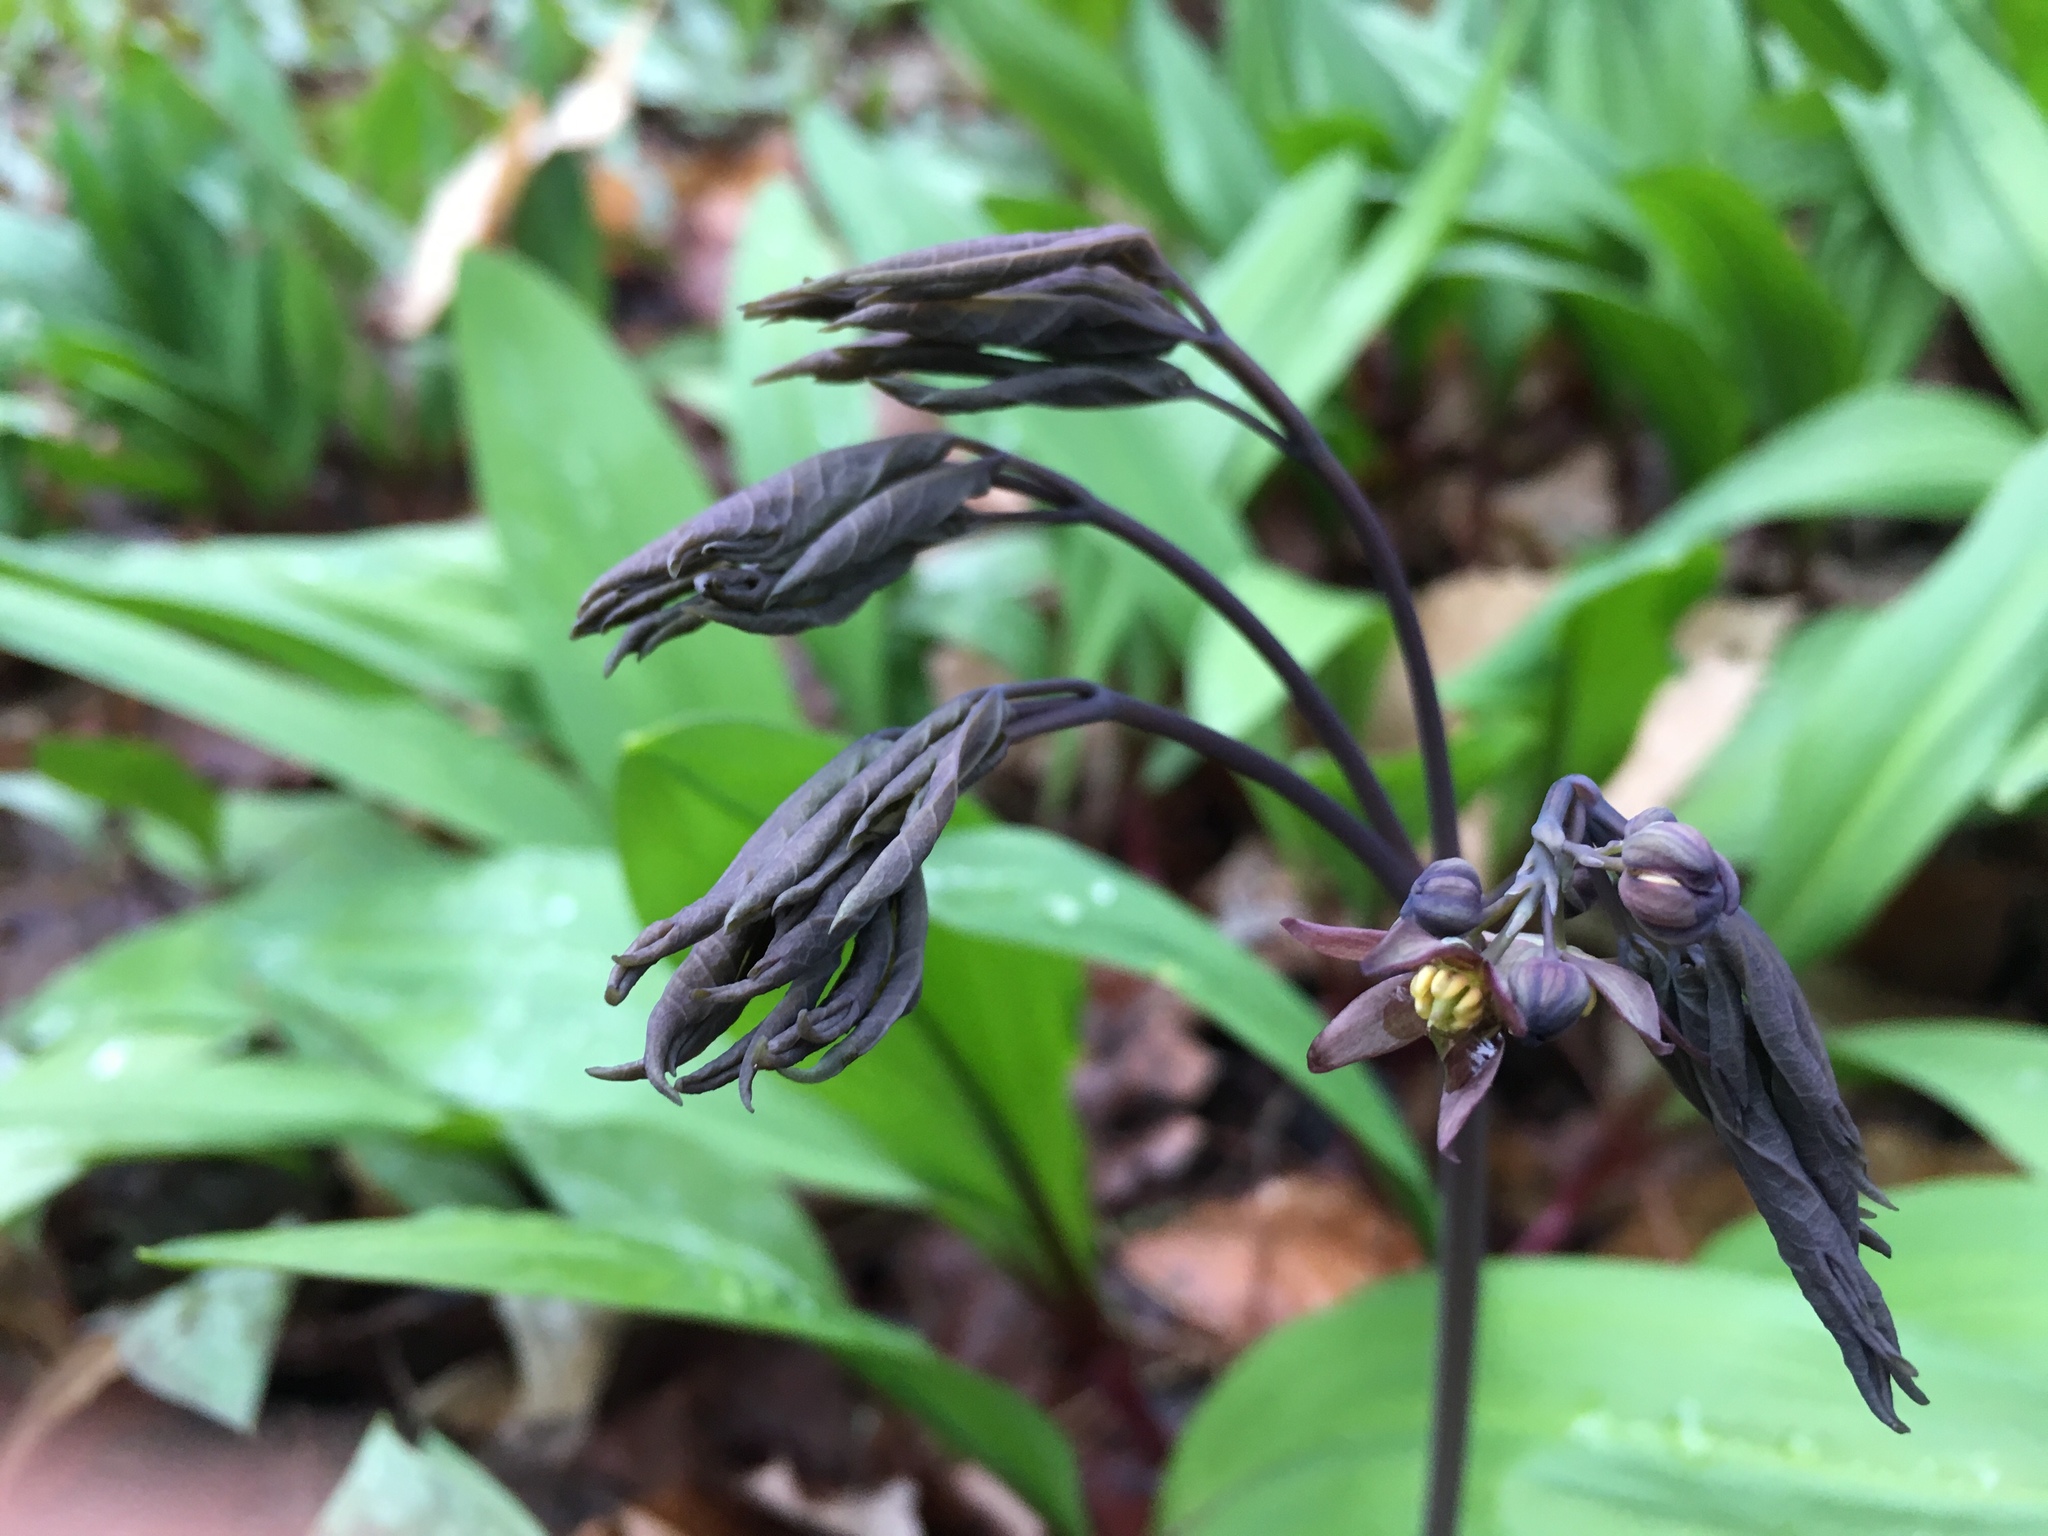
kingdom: Plantae
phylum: Tracheophyta
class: Magnoliopsida
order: Ranunculales
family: Berberidaceae
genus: Caulophyllum
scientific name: Caulophyllum giganteum
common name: Blue cohosh
